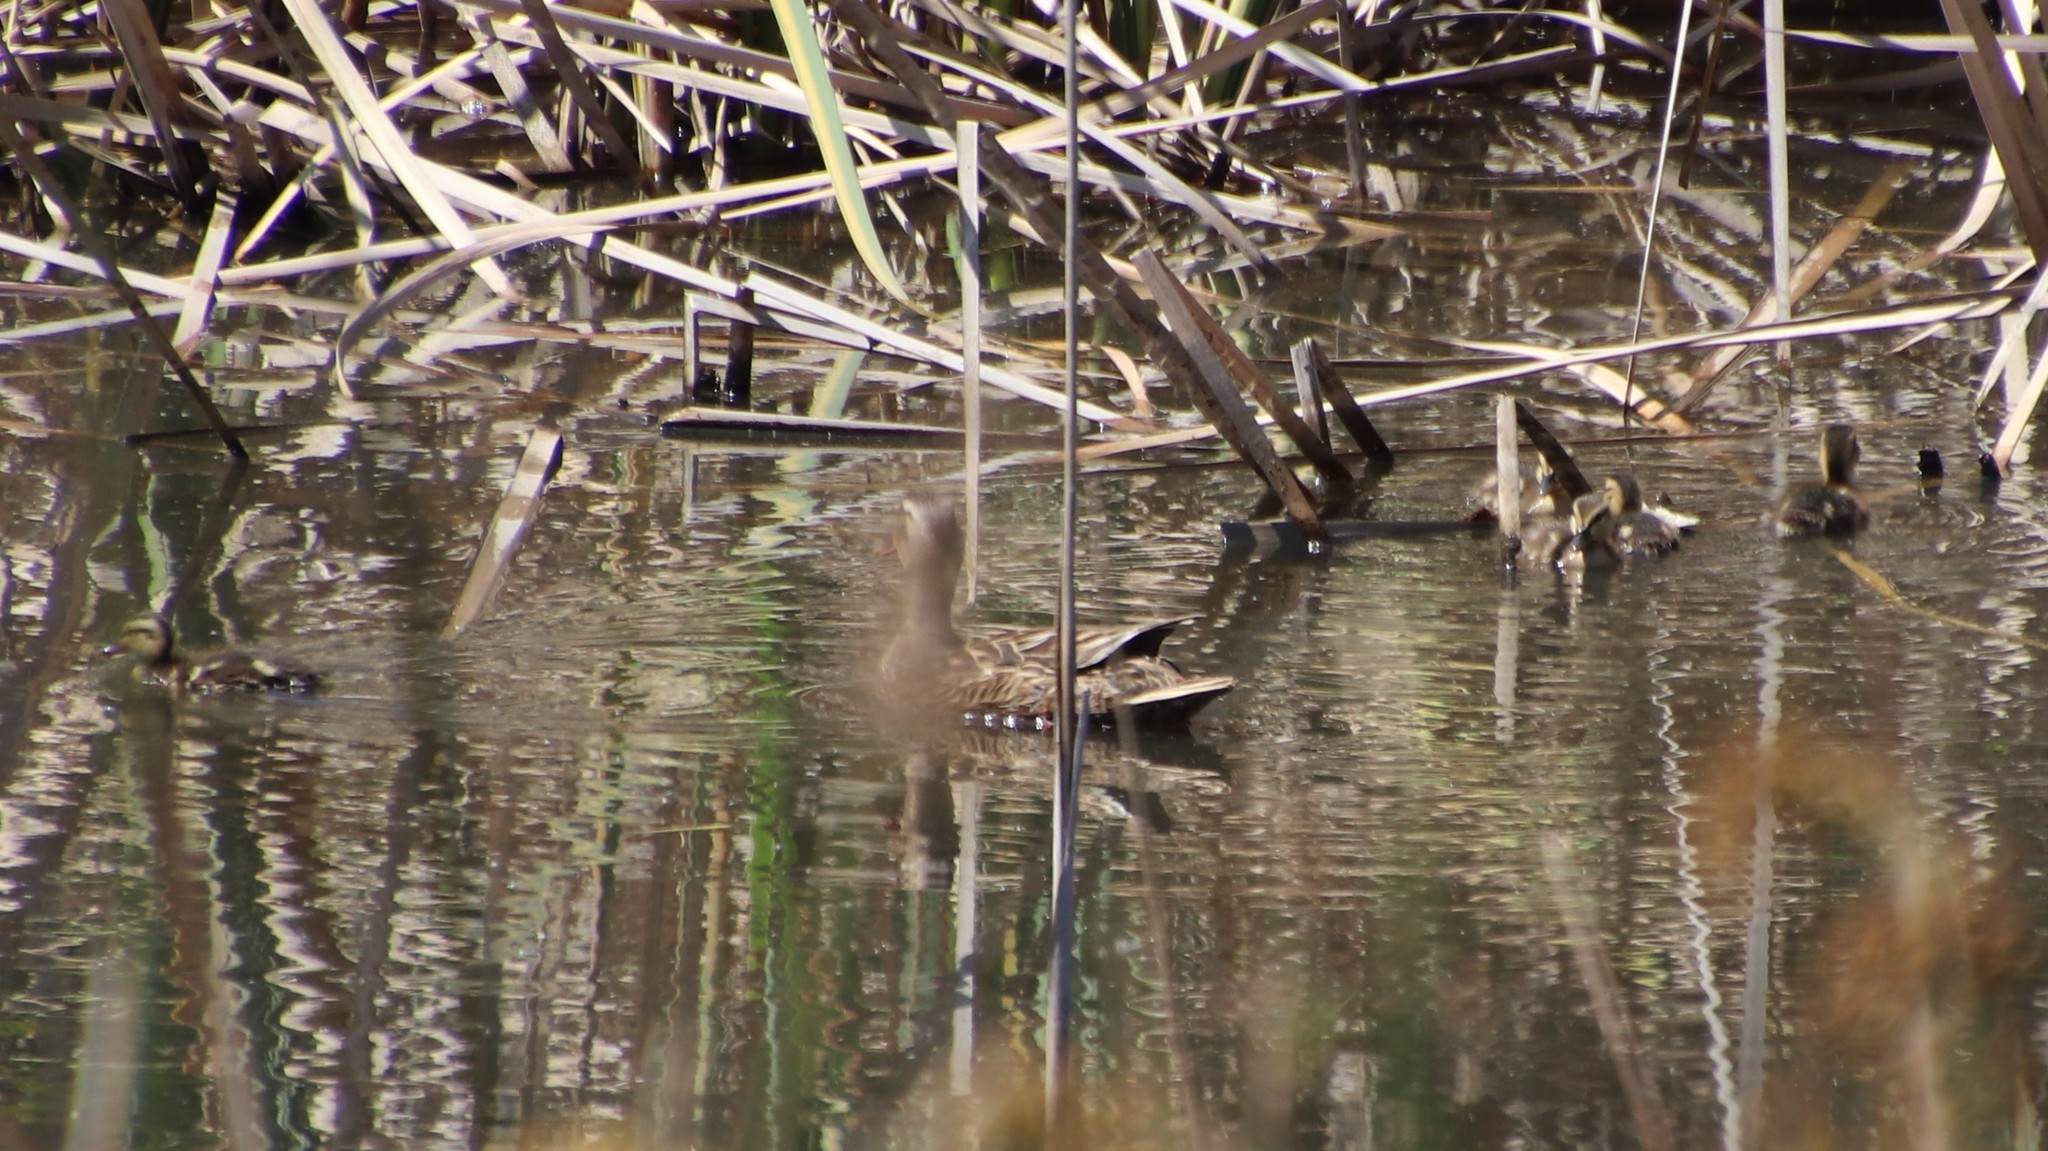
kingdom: Animalia
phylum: Chordata
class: Aves
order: Anseriformes
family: Anatidae
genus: Anas
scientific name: Anas platyrhynchos
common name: Mallard
